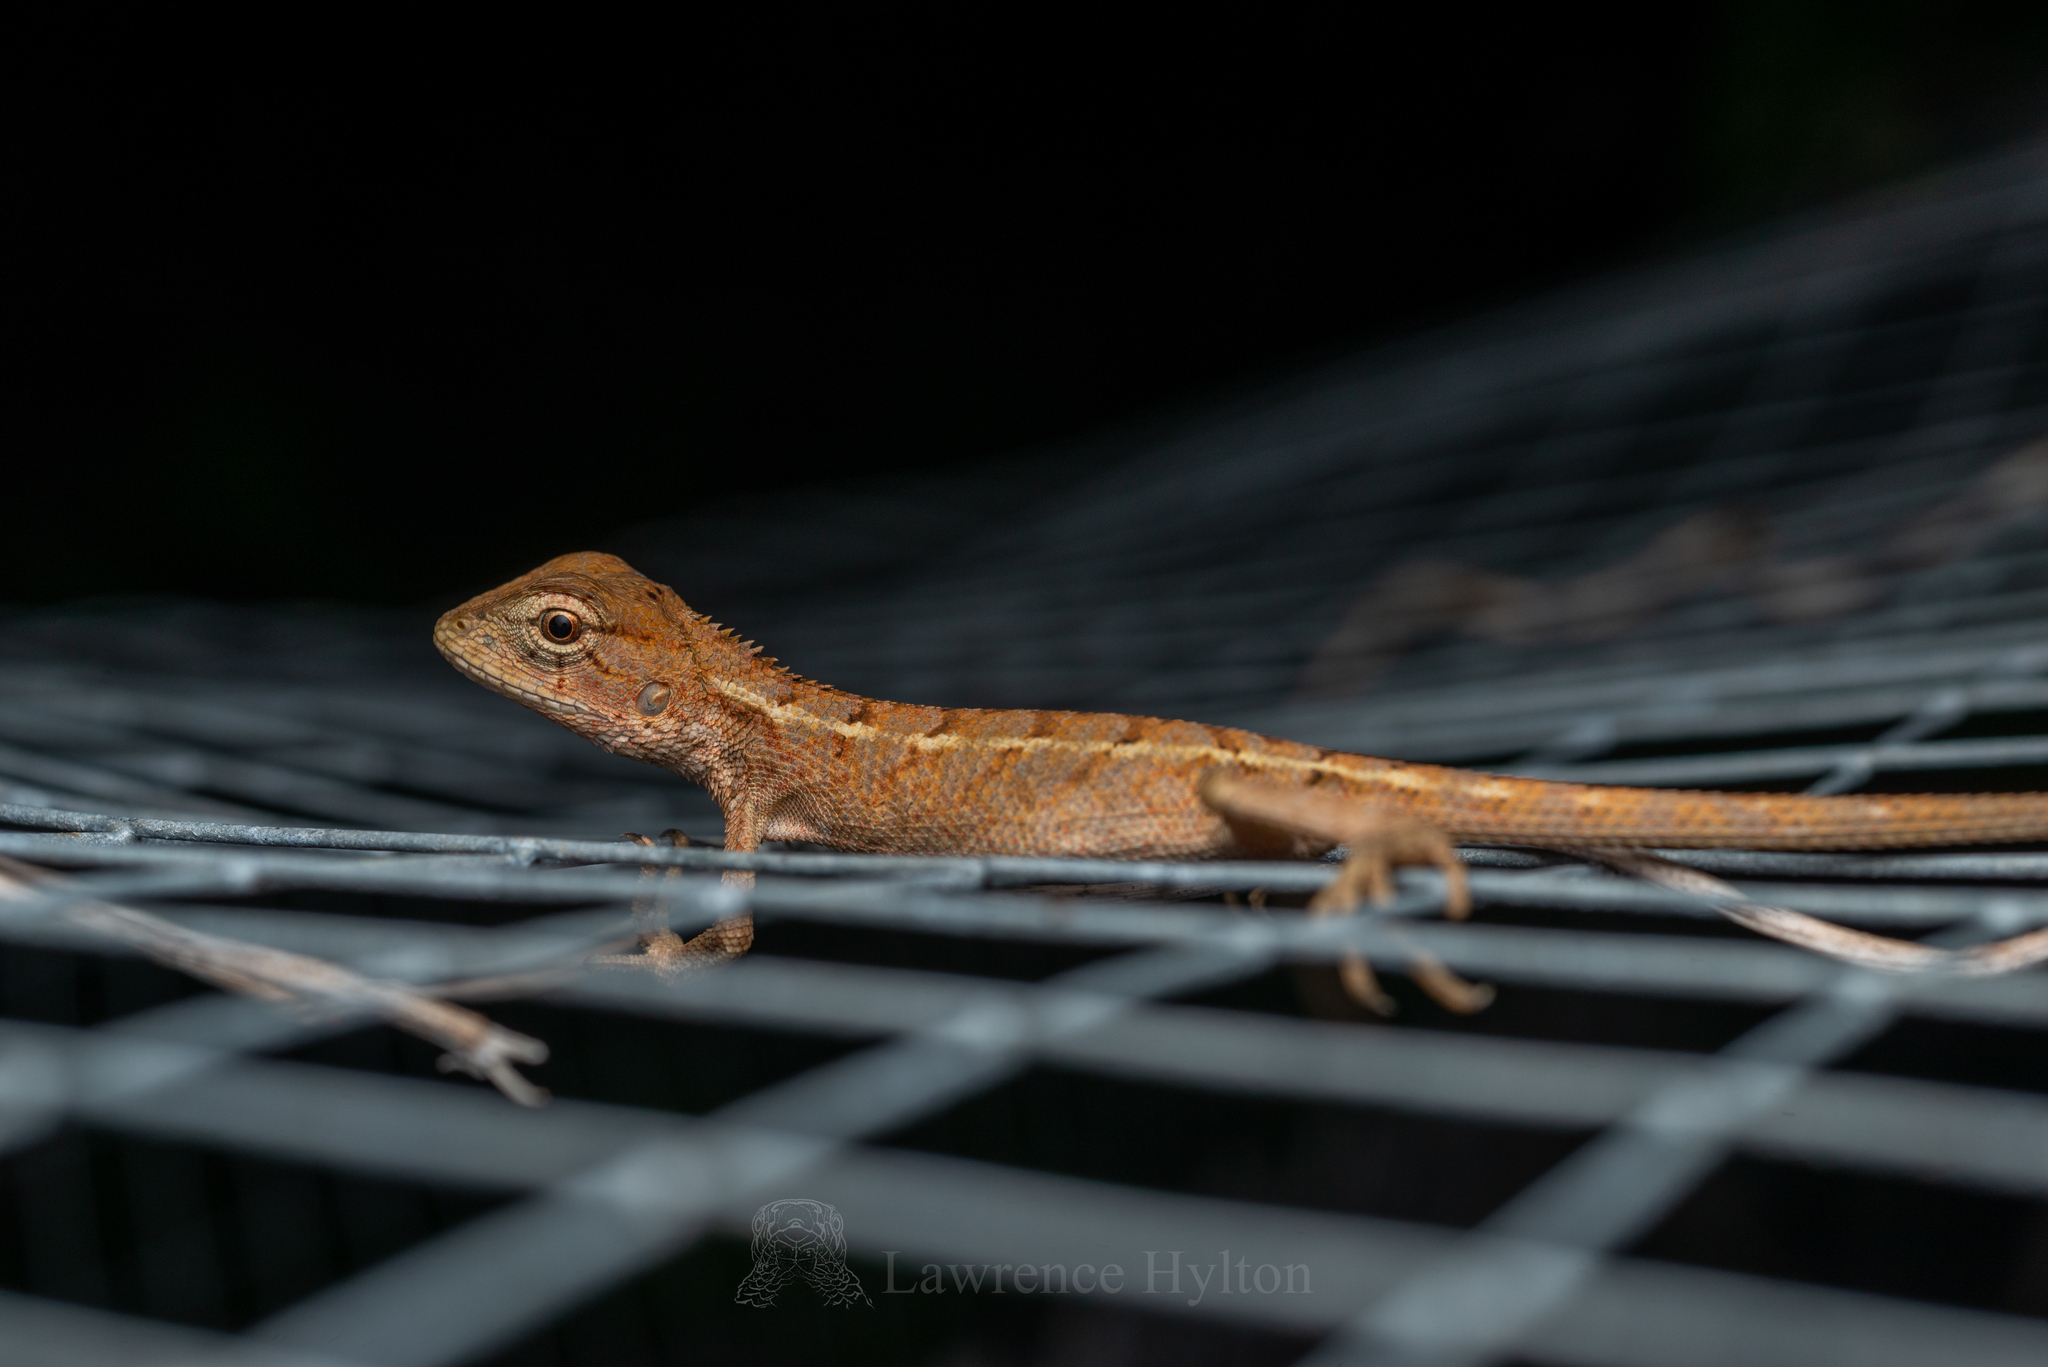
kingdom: Animalia
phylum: Chordata
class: Squamata
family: Agamidae
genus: Calotes
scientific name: Calotes versicolor
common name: Oriental garden lizard
